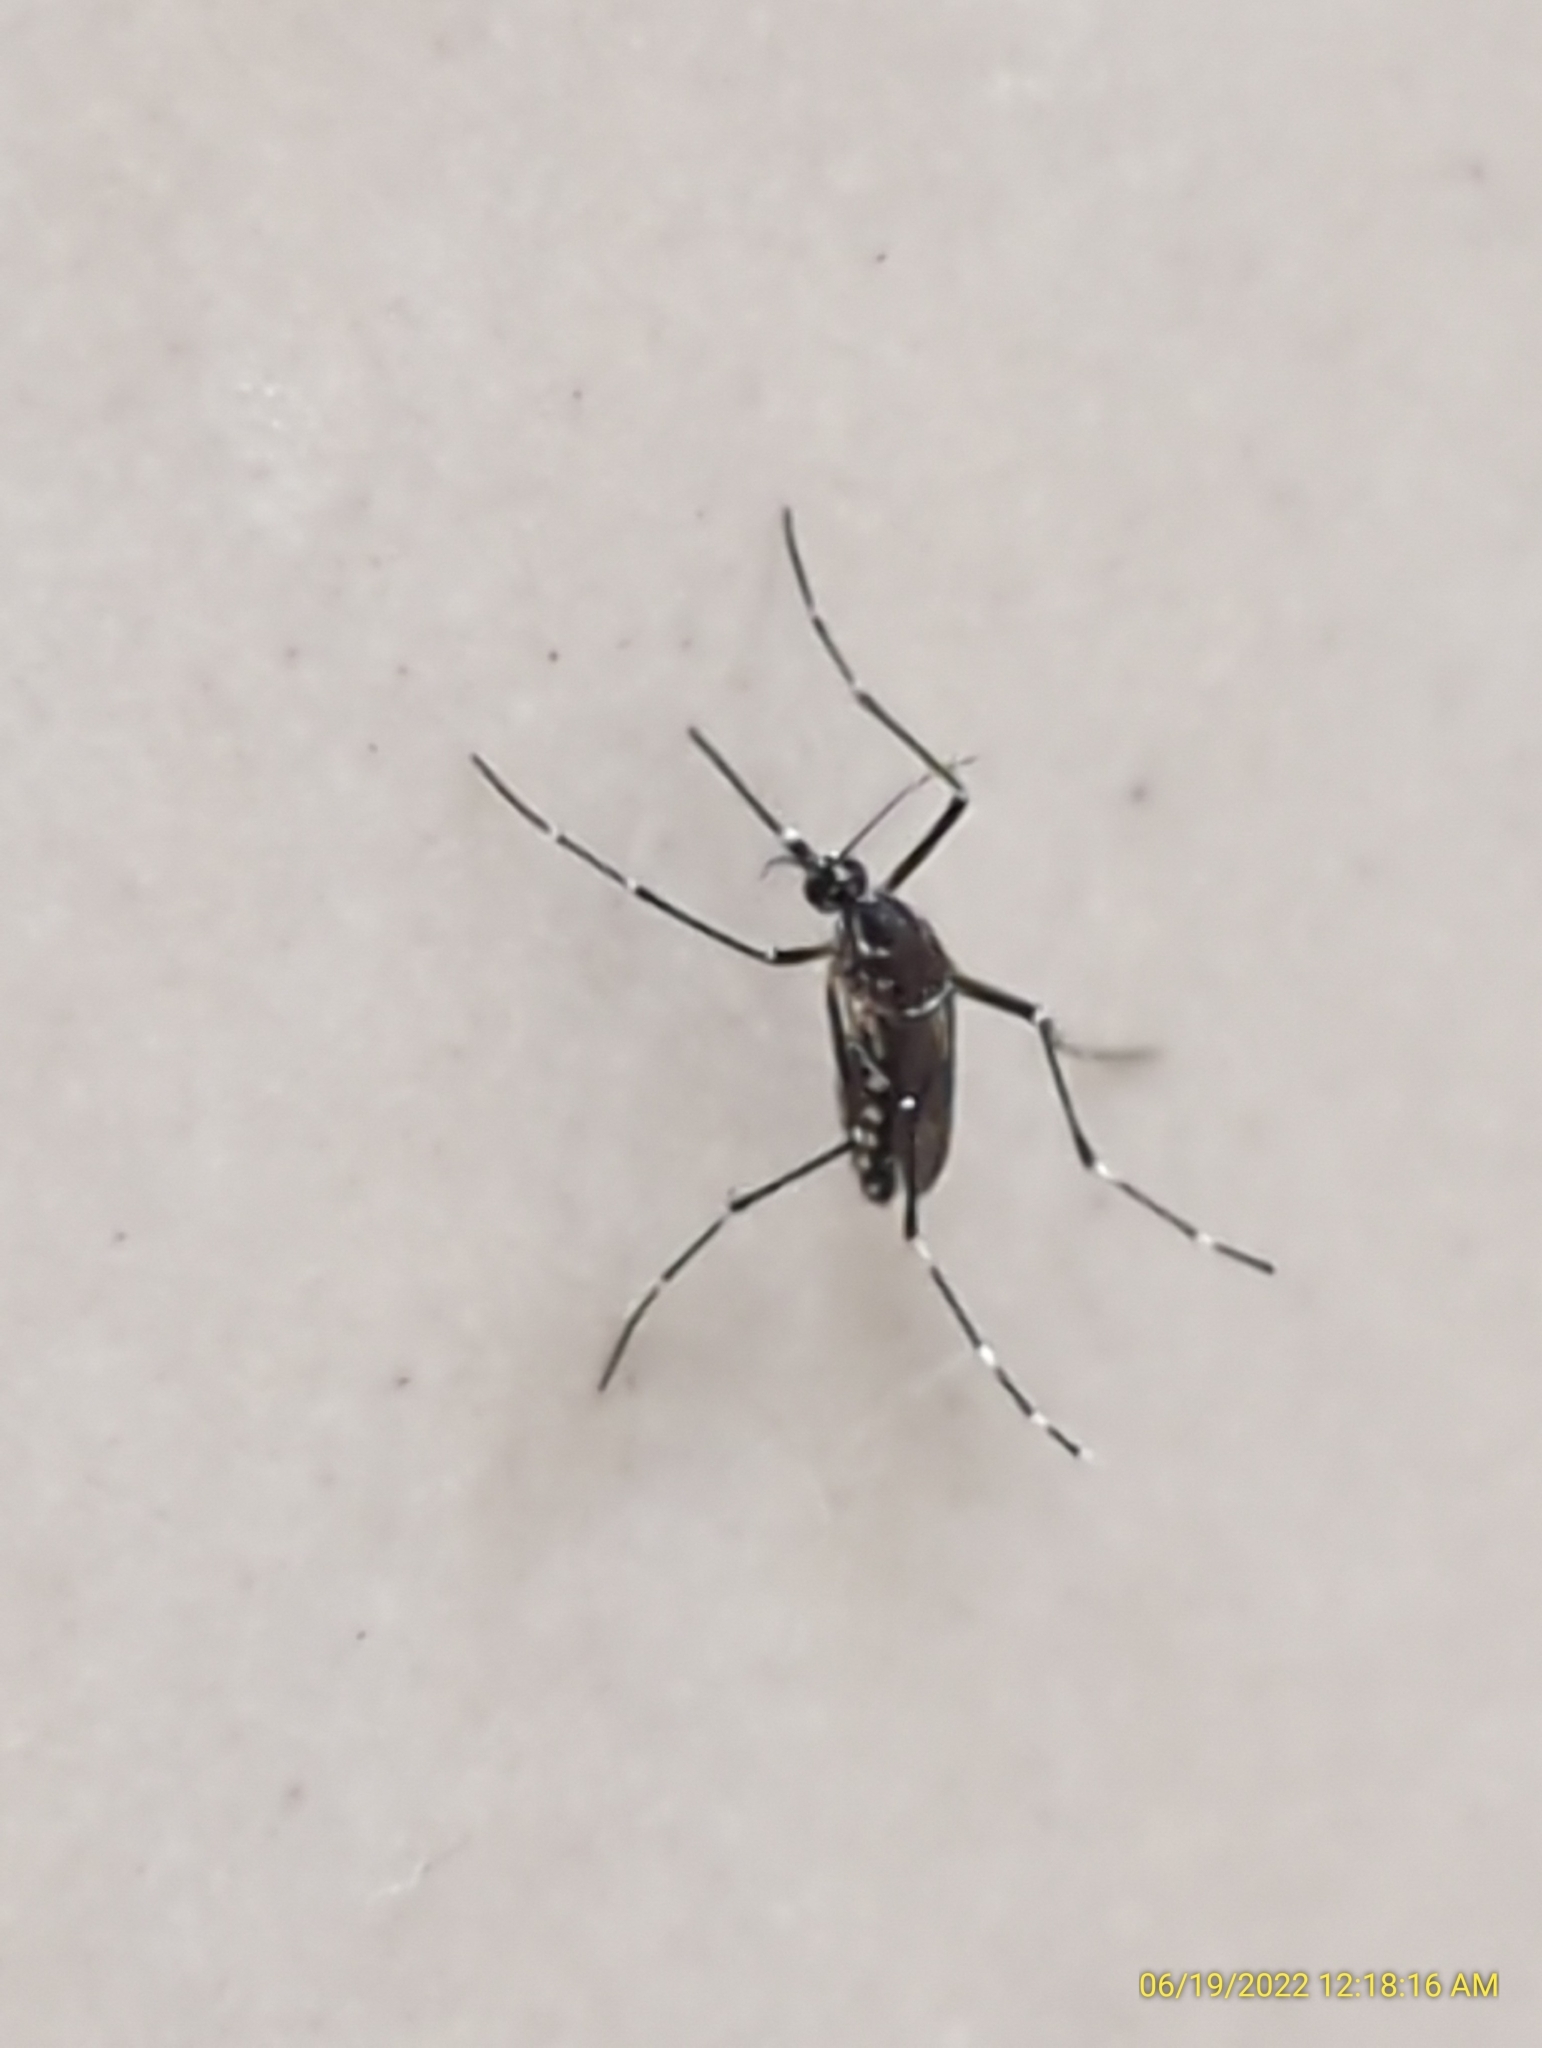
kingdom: Animalia
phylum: Arthropoda
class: Insecta
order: Diptera
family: Culicidae
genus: Aedes
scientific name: Aedes aegypti
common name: Yellow fever mosquito
